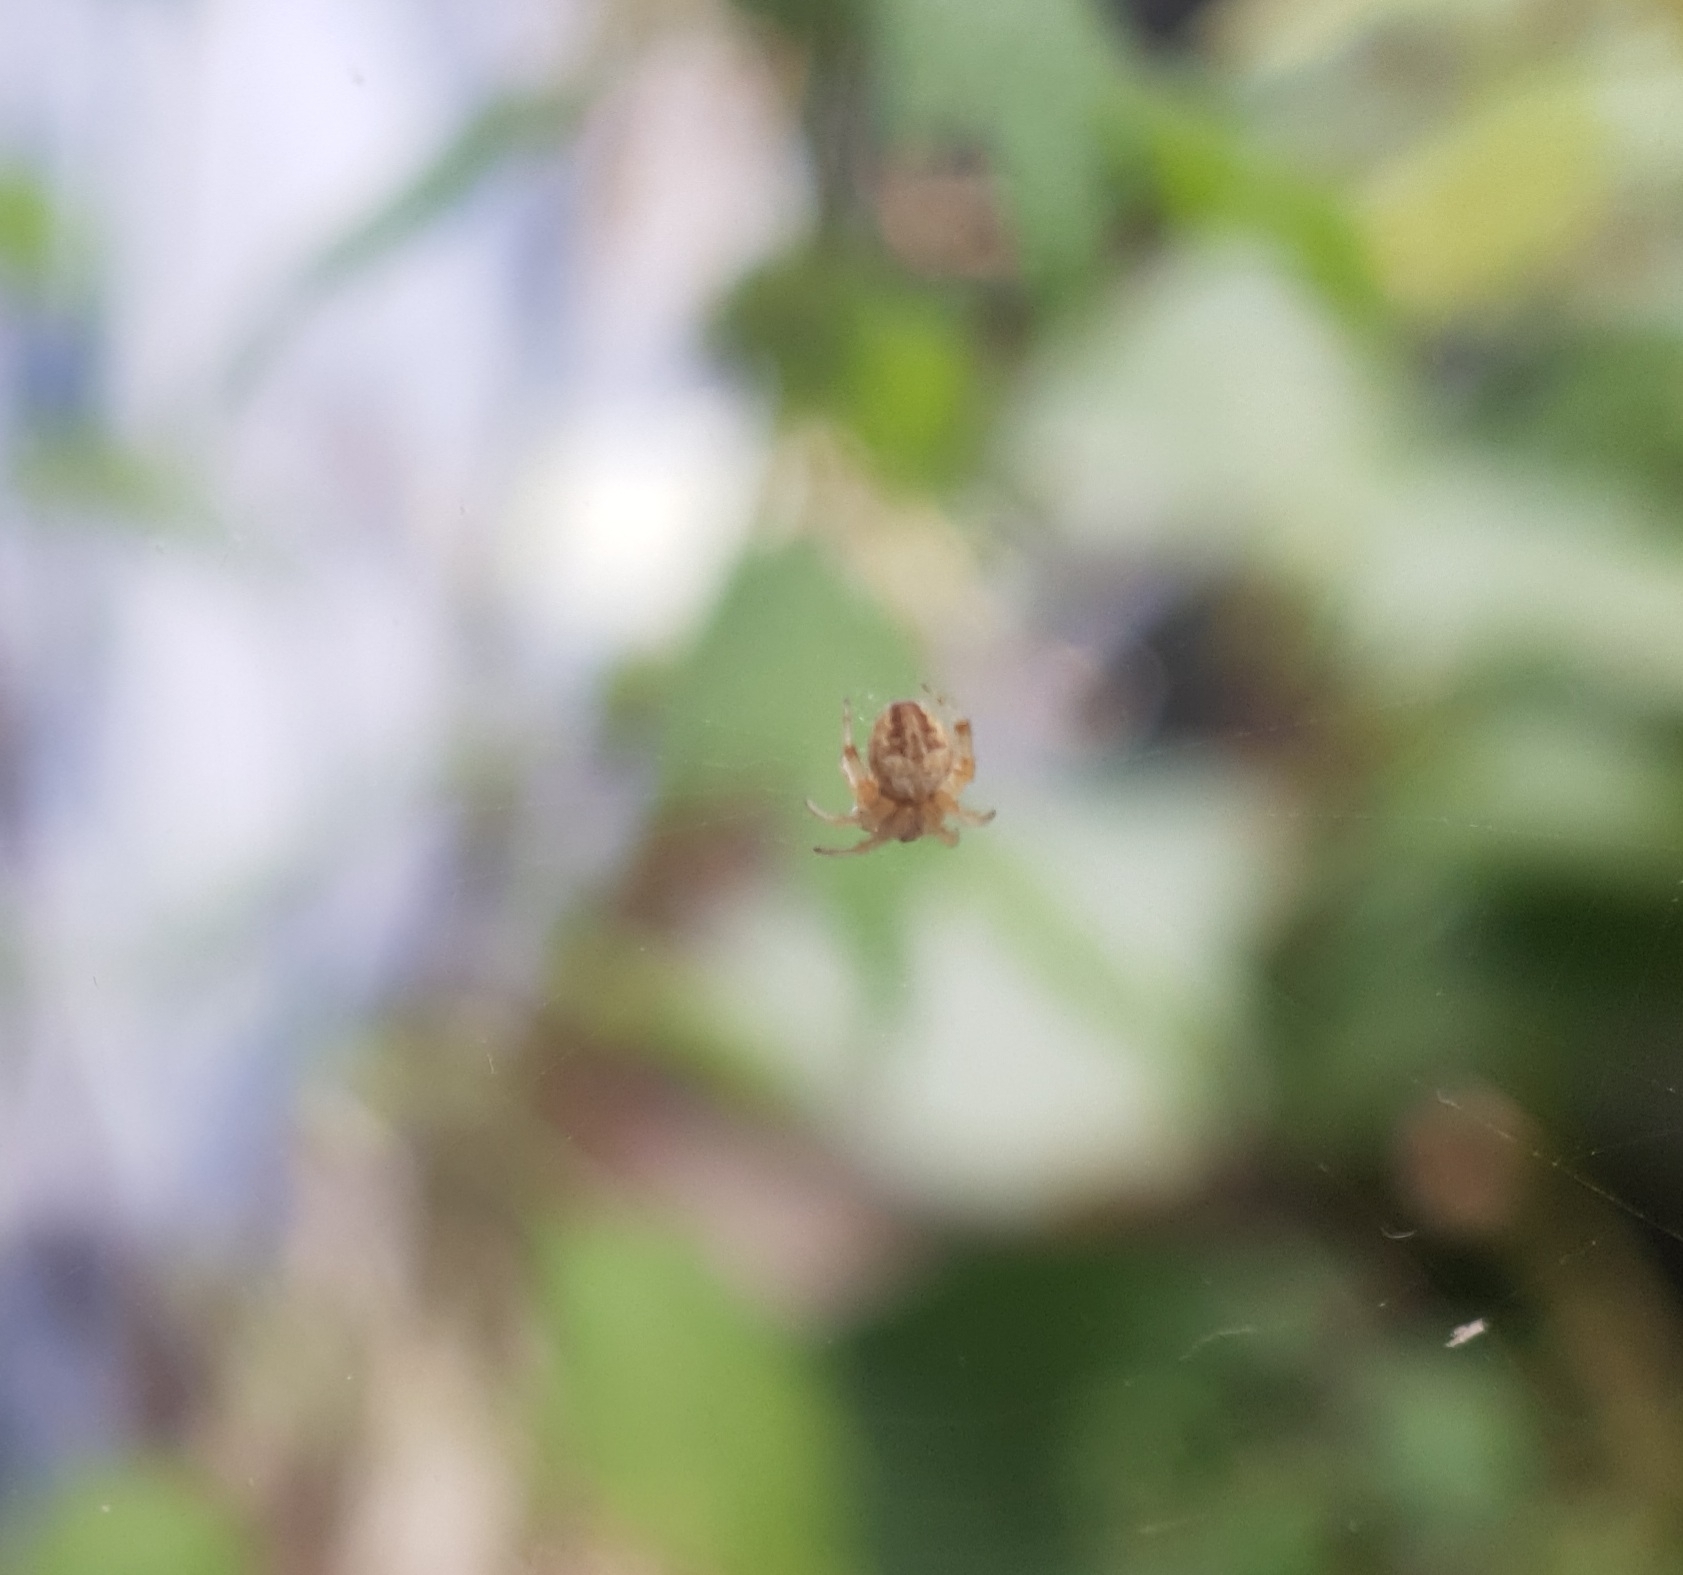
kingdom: Animalia
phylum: Arthropoda
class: Arachnida
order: Araneae
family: Araneidae
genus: Larinioides
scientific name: Larinioides
